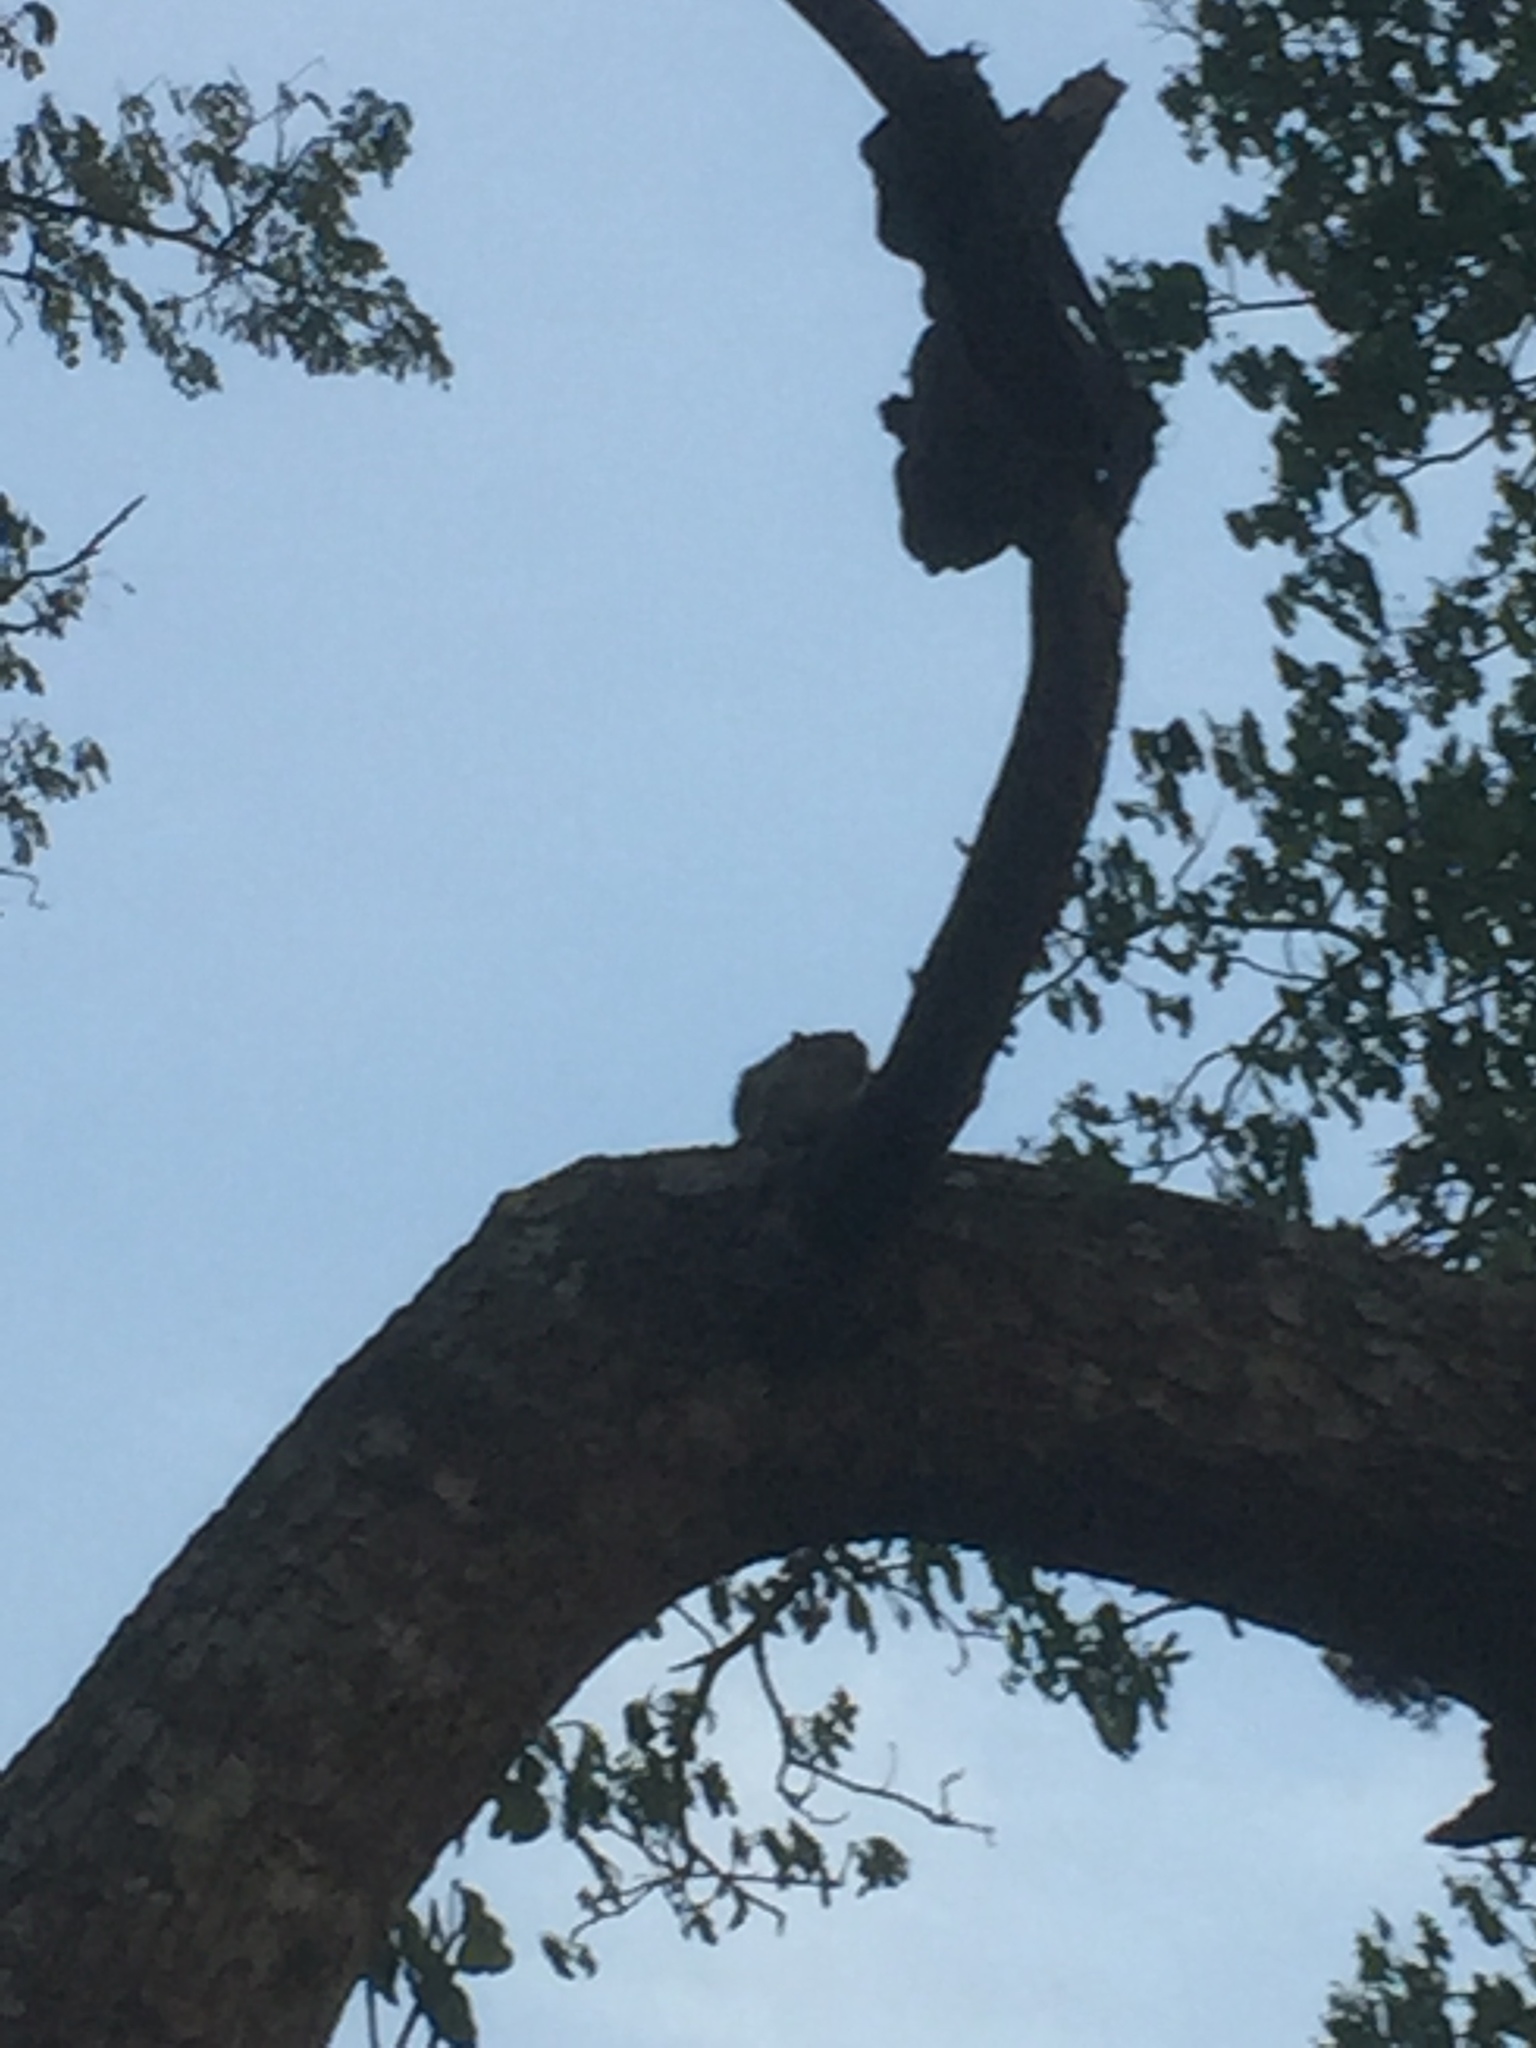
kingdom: Animalia
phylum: Chordata
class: Mammalia
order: Rodentia
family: Sciuridae
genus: Funambulus
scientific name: Funambulus palmarum
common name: Indian palm squirrel
